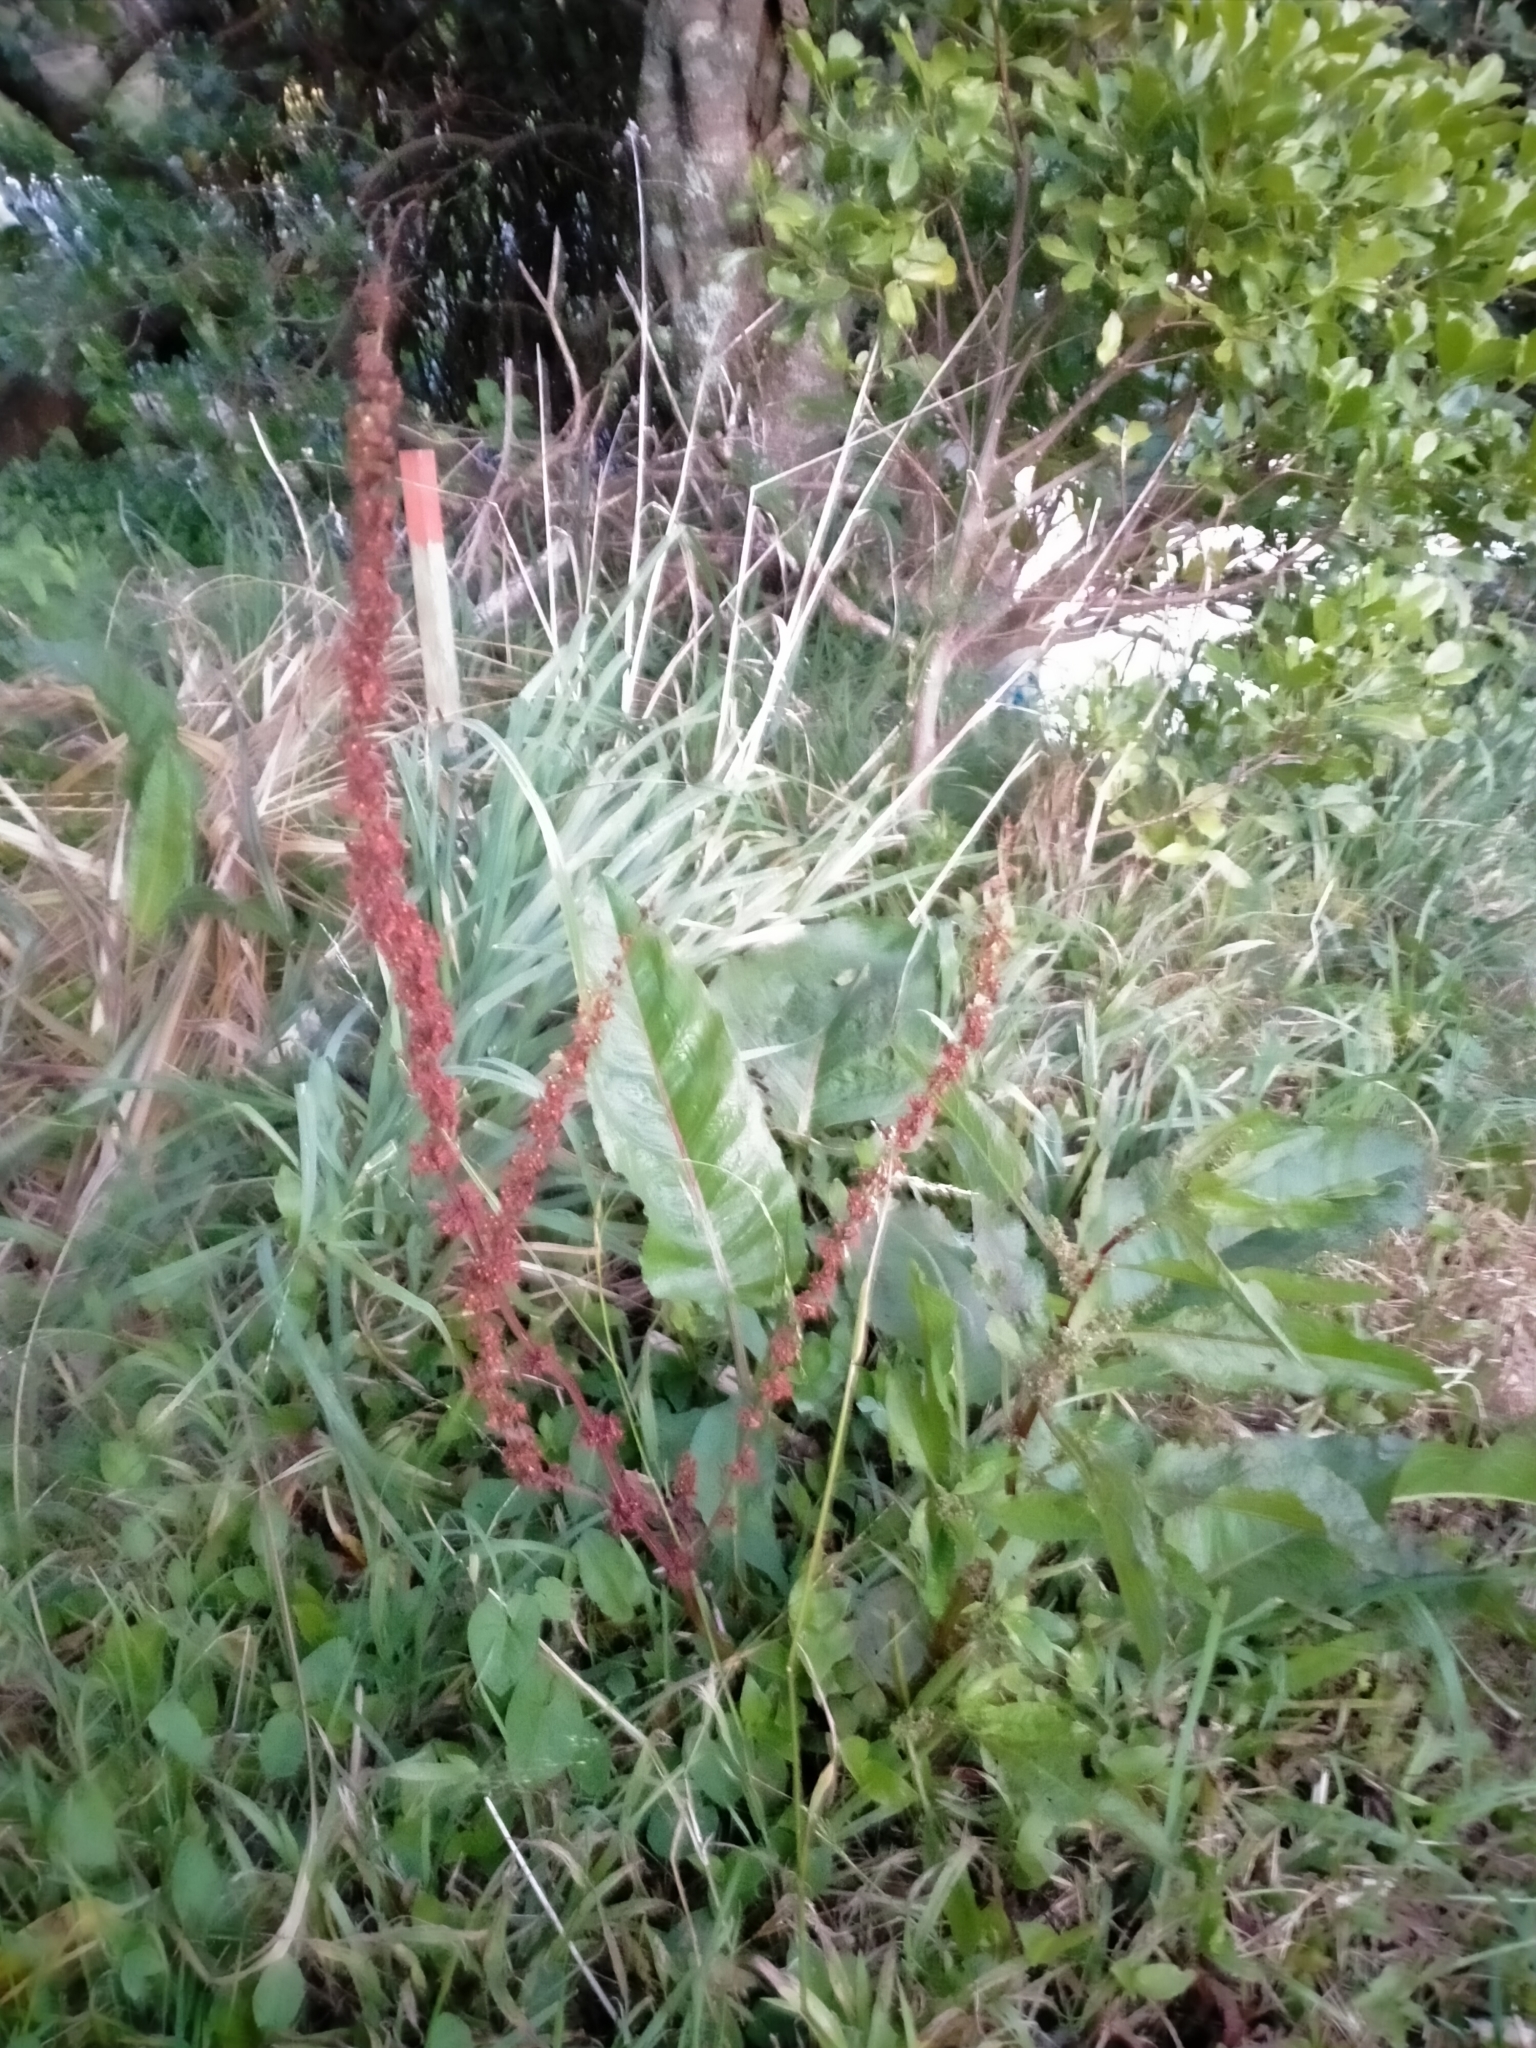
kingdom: Plantae
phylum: Tracheophyta
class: Magnoliopsida
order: Caryophyllales
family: Polygonaceae
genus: Rumex
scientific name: Rumex obtusifolius
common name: Bitter dock
